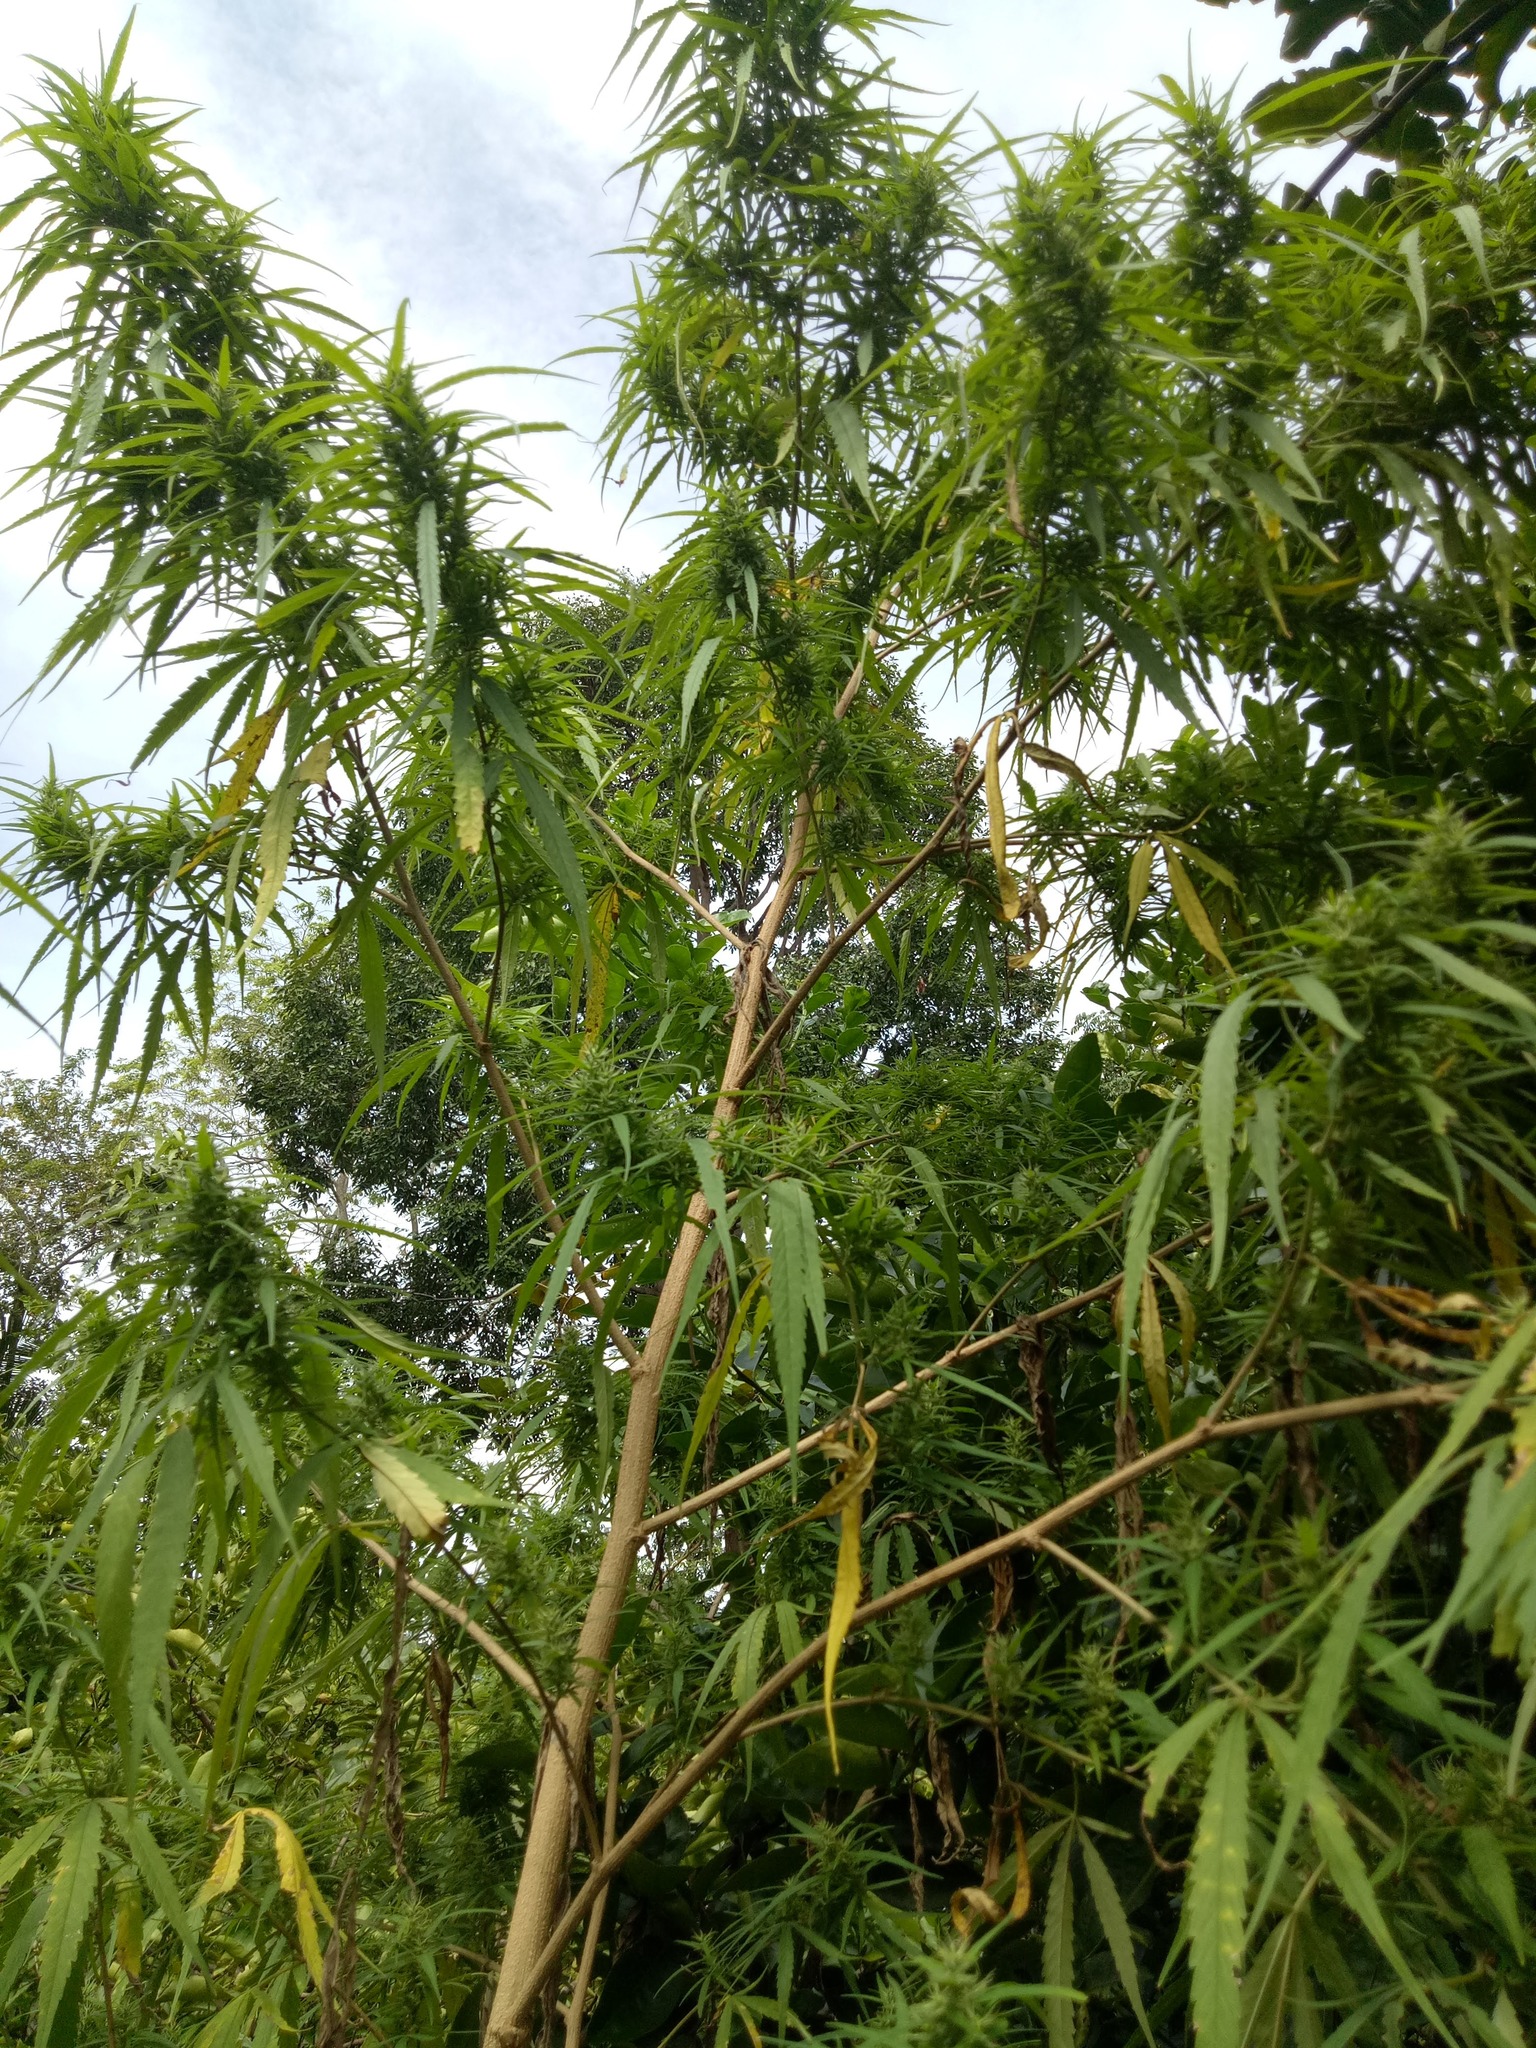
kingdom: Plantae
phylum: Tracheophyta
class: Magnoliopsida
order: Rosales
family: Cannabaceae
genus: Cannabis
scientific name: Cannabis sativa
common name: Hemp
